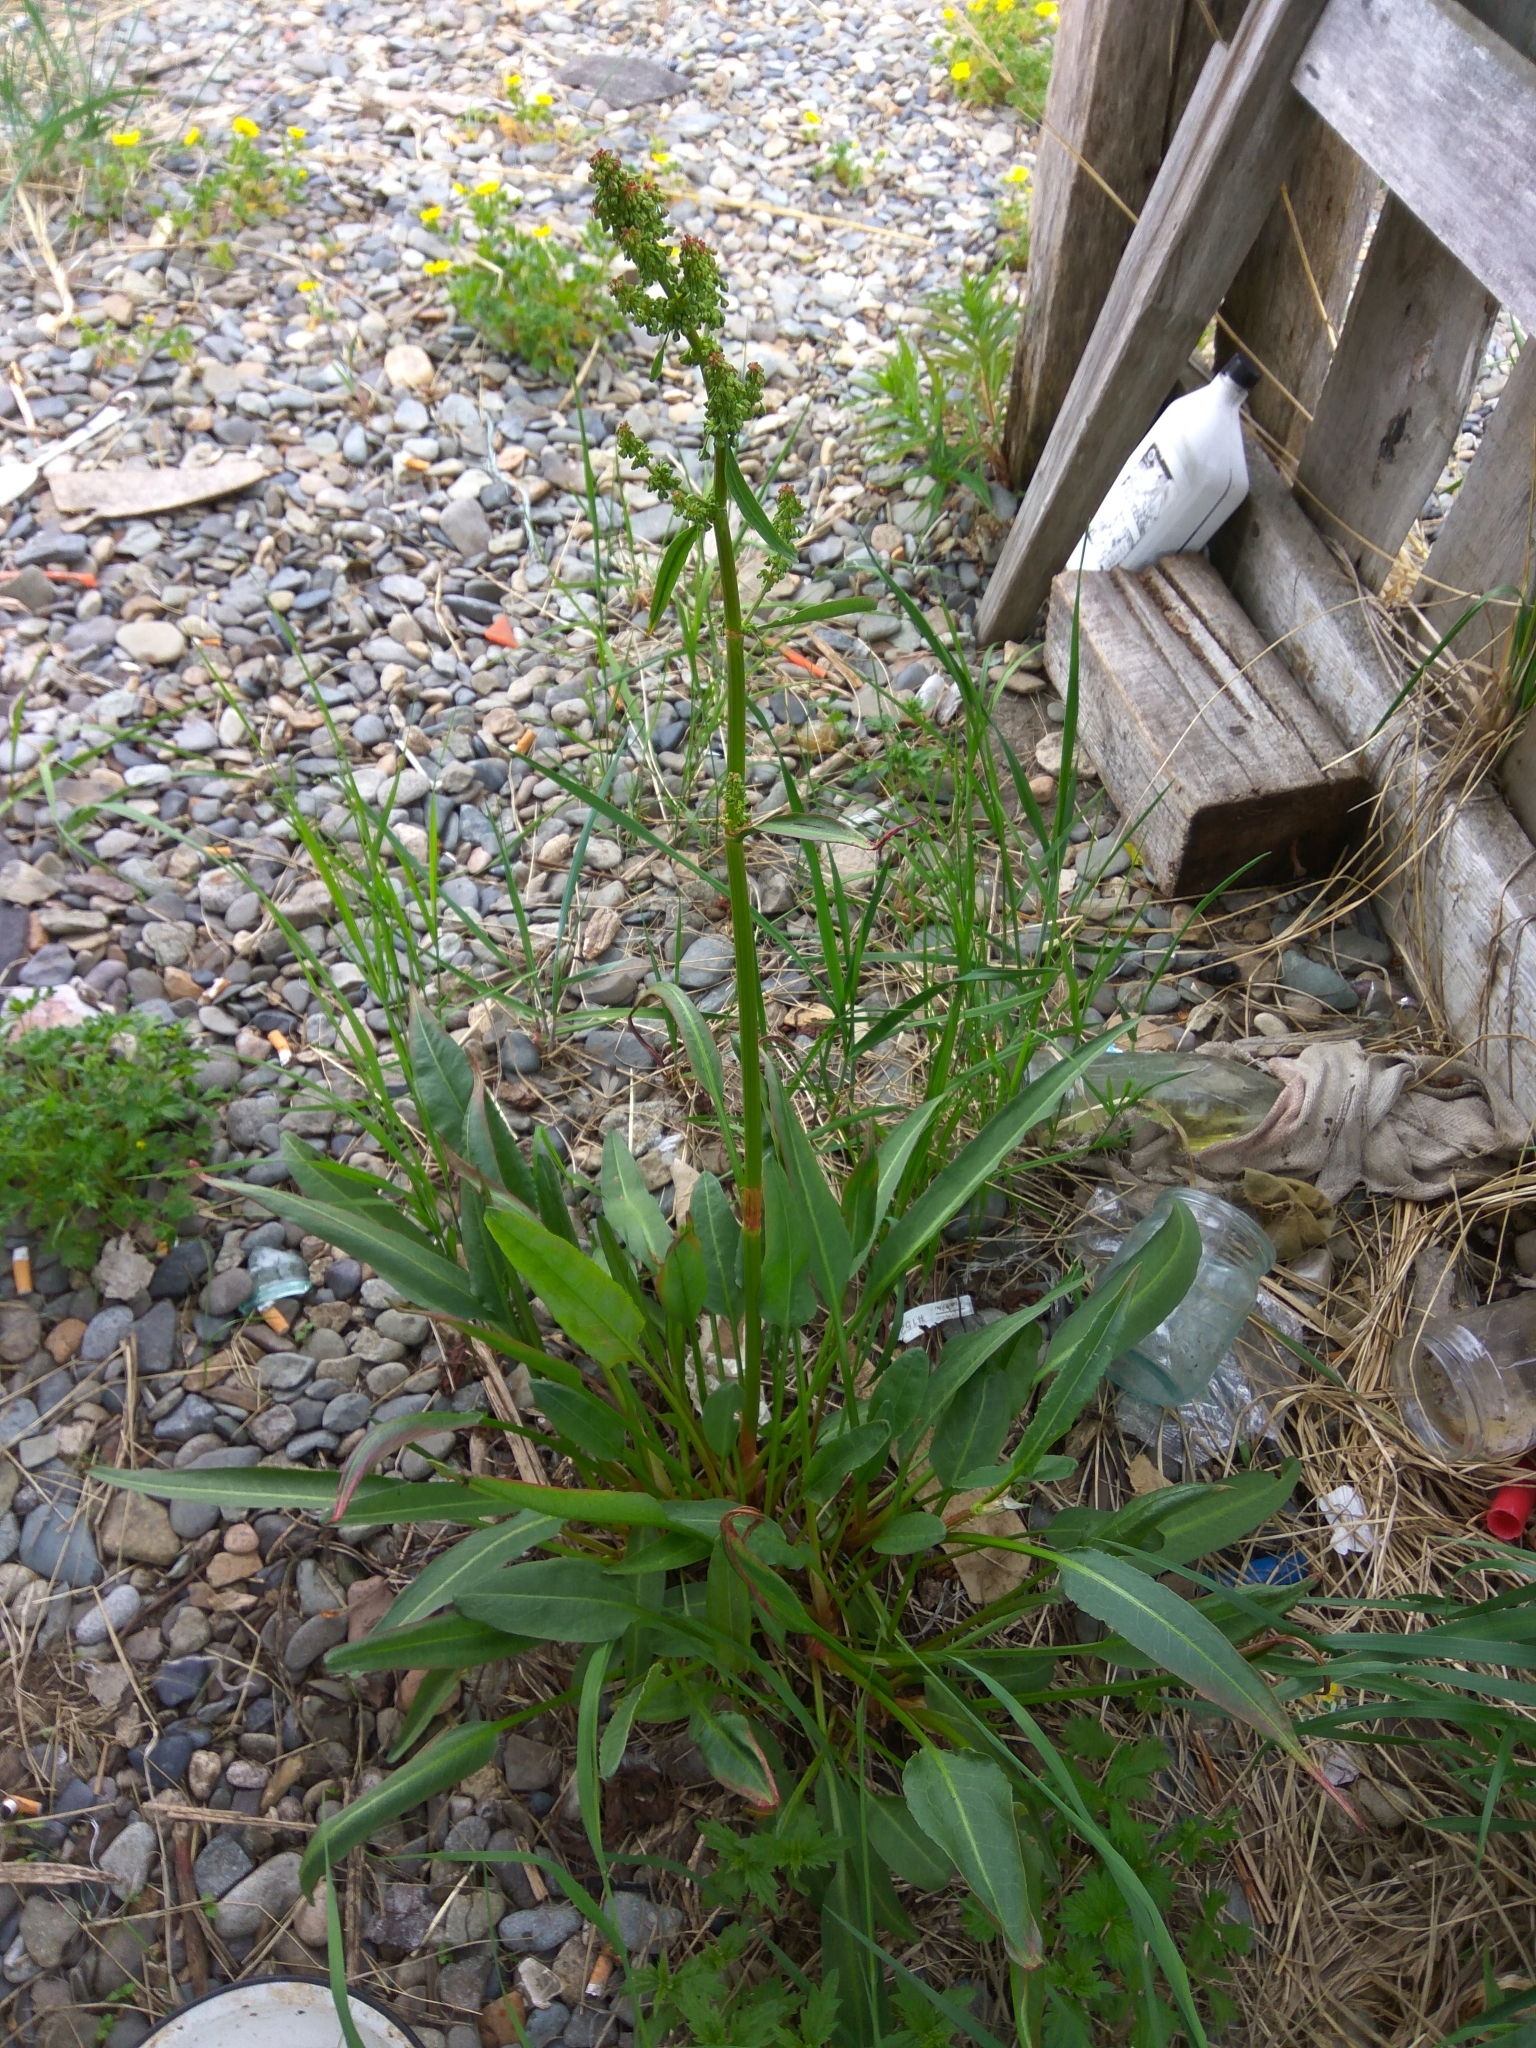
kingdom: Plantae
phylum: Tracheophyta
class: Magnoliopsida
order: Caryophyllales
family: Polygonaceae
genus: Rumex
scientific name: Rumex arcticus
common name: Arctic dock
